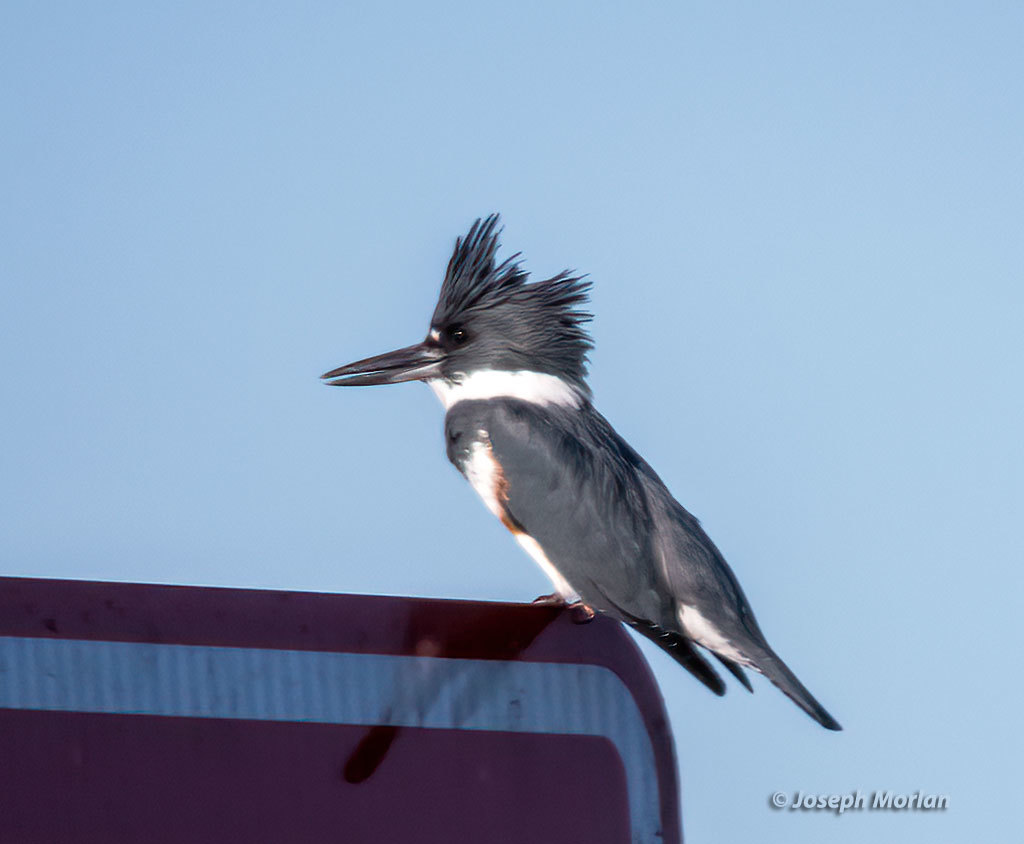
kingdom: Animalia
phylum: Chordata
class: Aves
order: Coraciiformes
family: Alcedinidae
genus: Megaceryle
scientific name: Megaceryle alcyon
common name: Belted kingfisher
